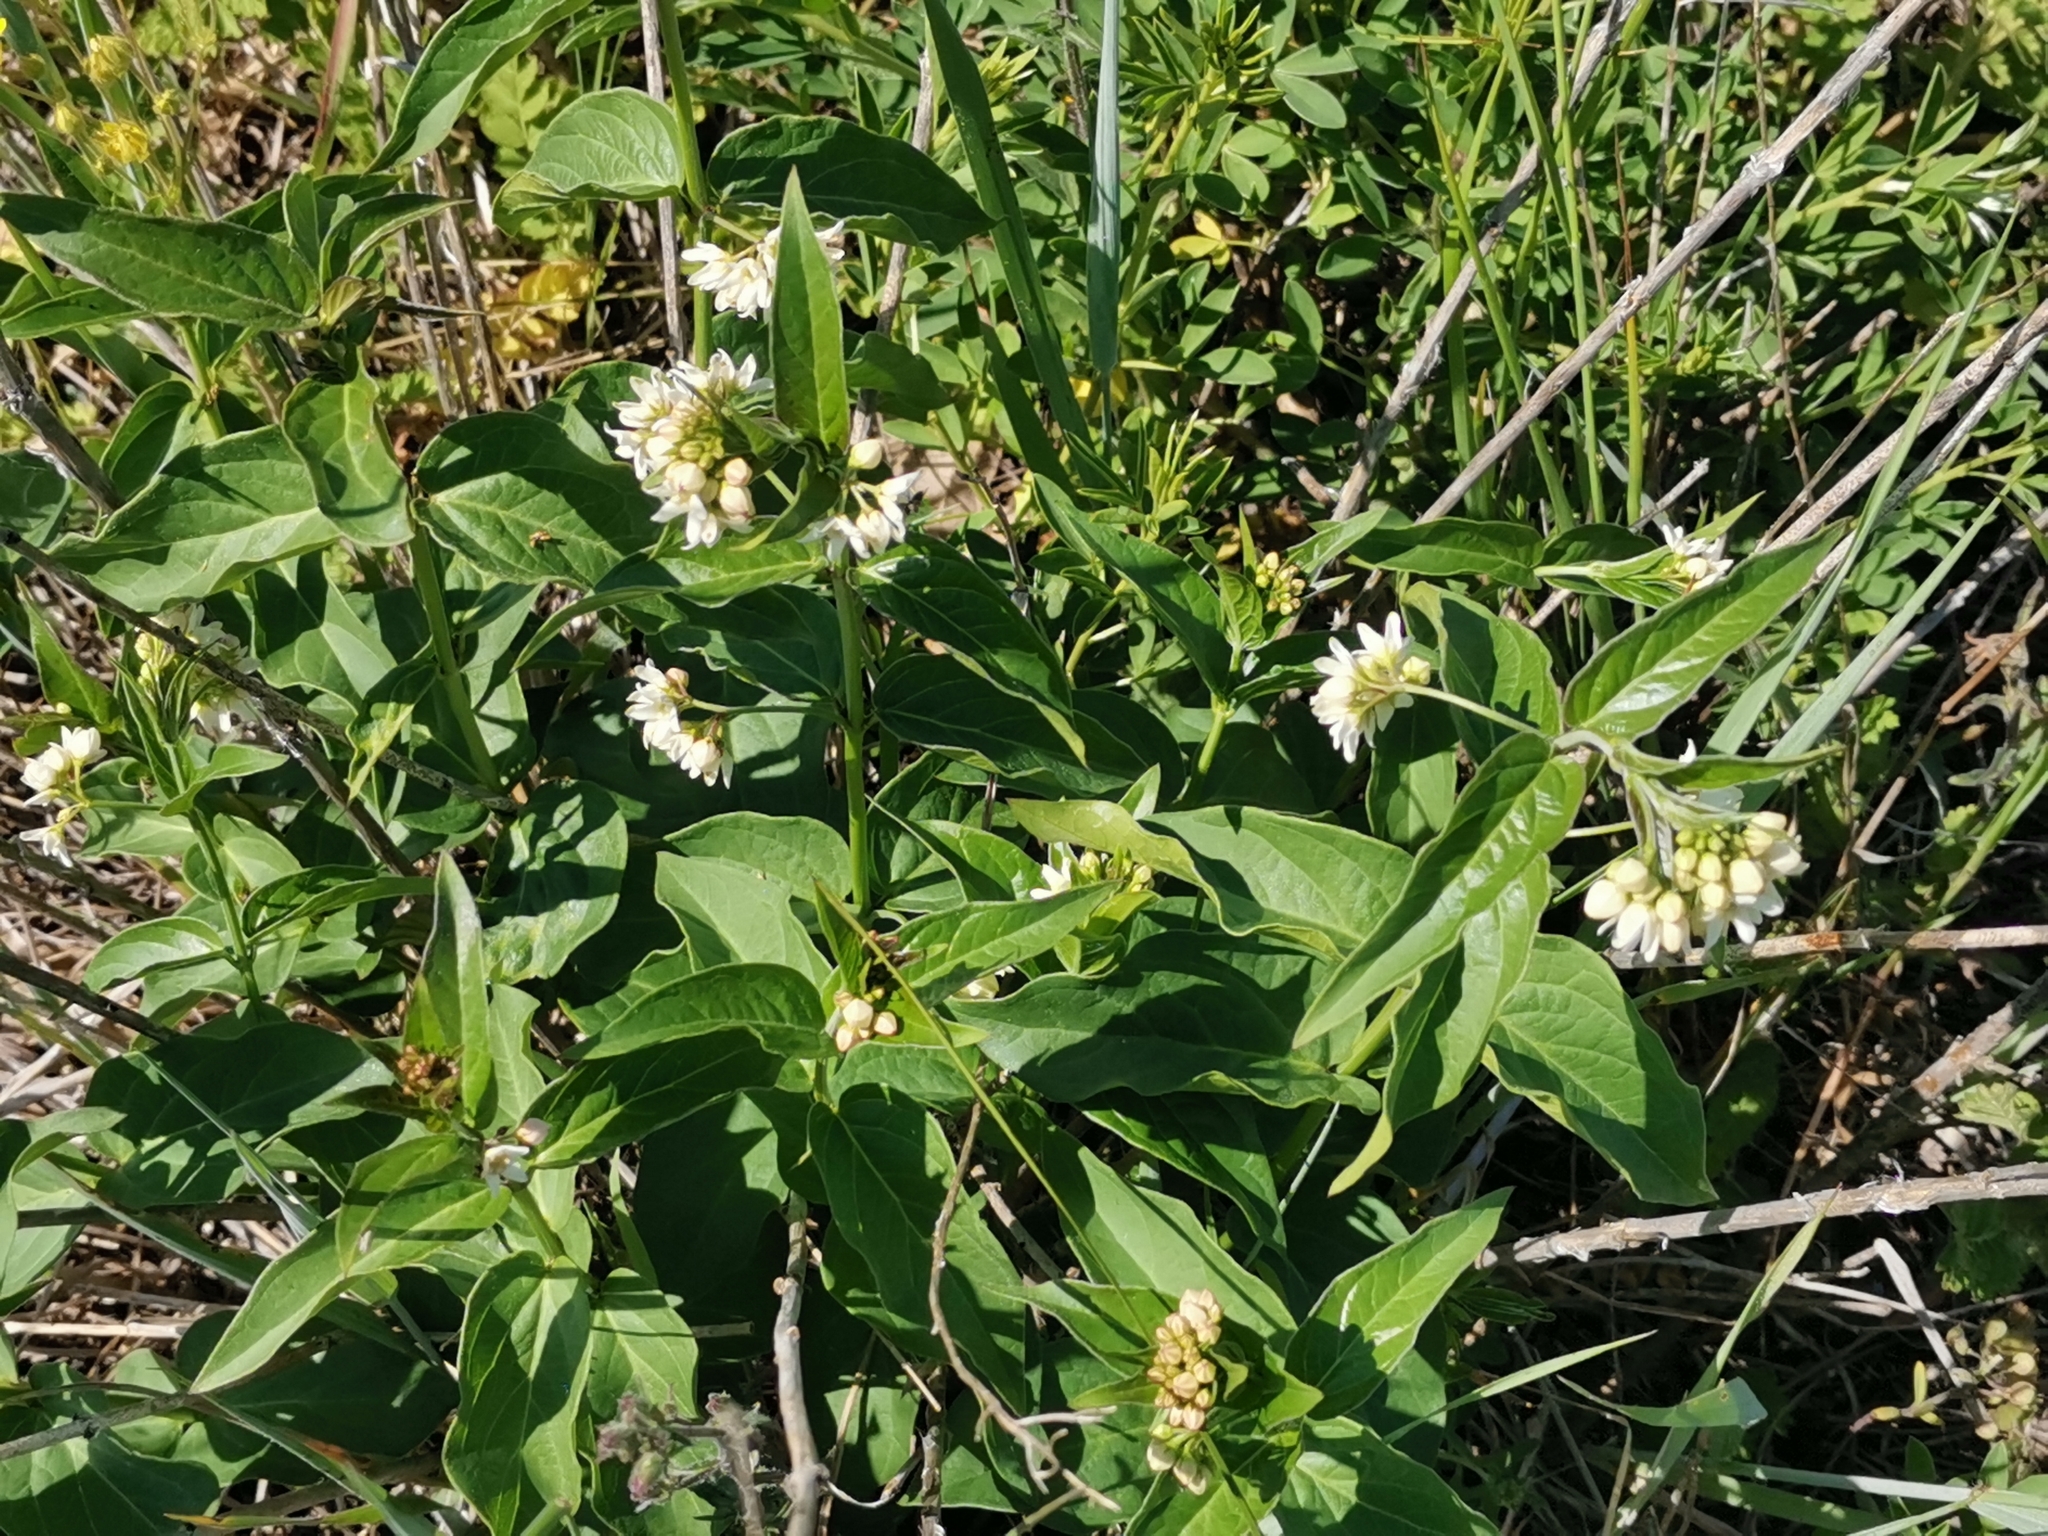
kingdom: Plantae
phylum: Tracheophyta
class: Magnoliopsida
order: Gentianales
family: Apocynaceae
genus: Vincetoxicum
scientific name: Vincetoxicum hirundinaria
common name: White swallowwort
